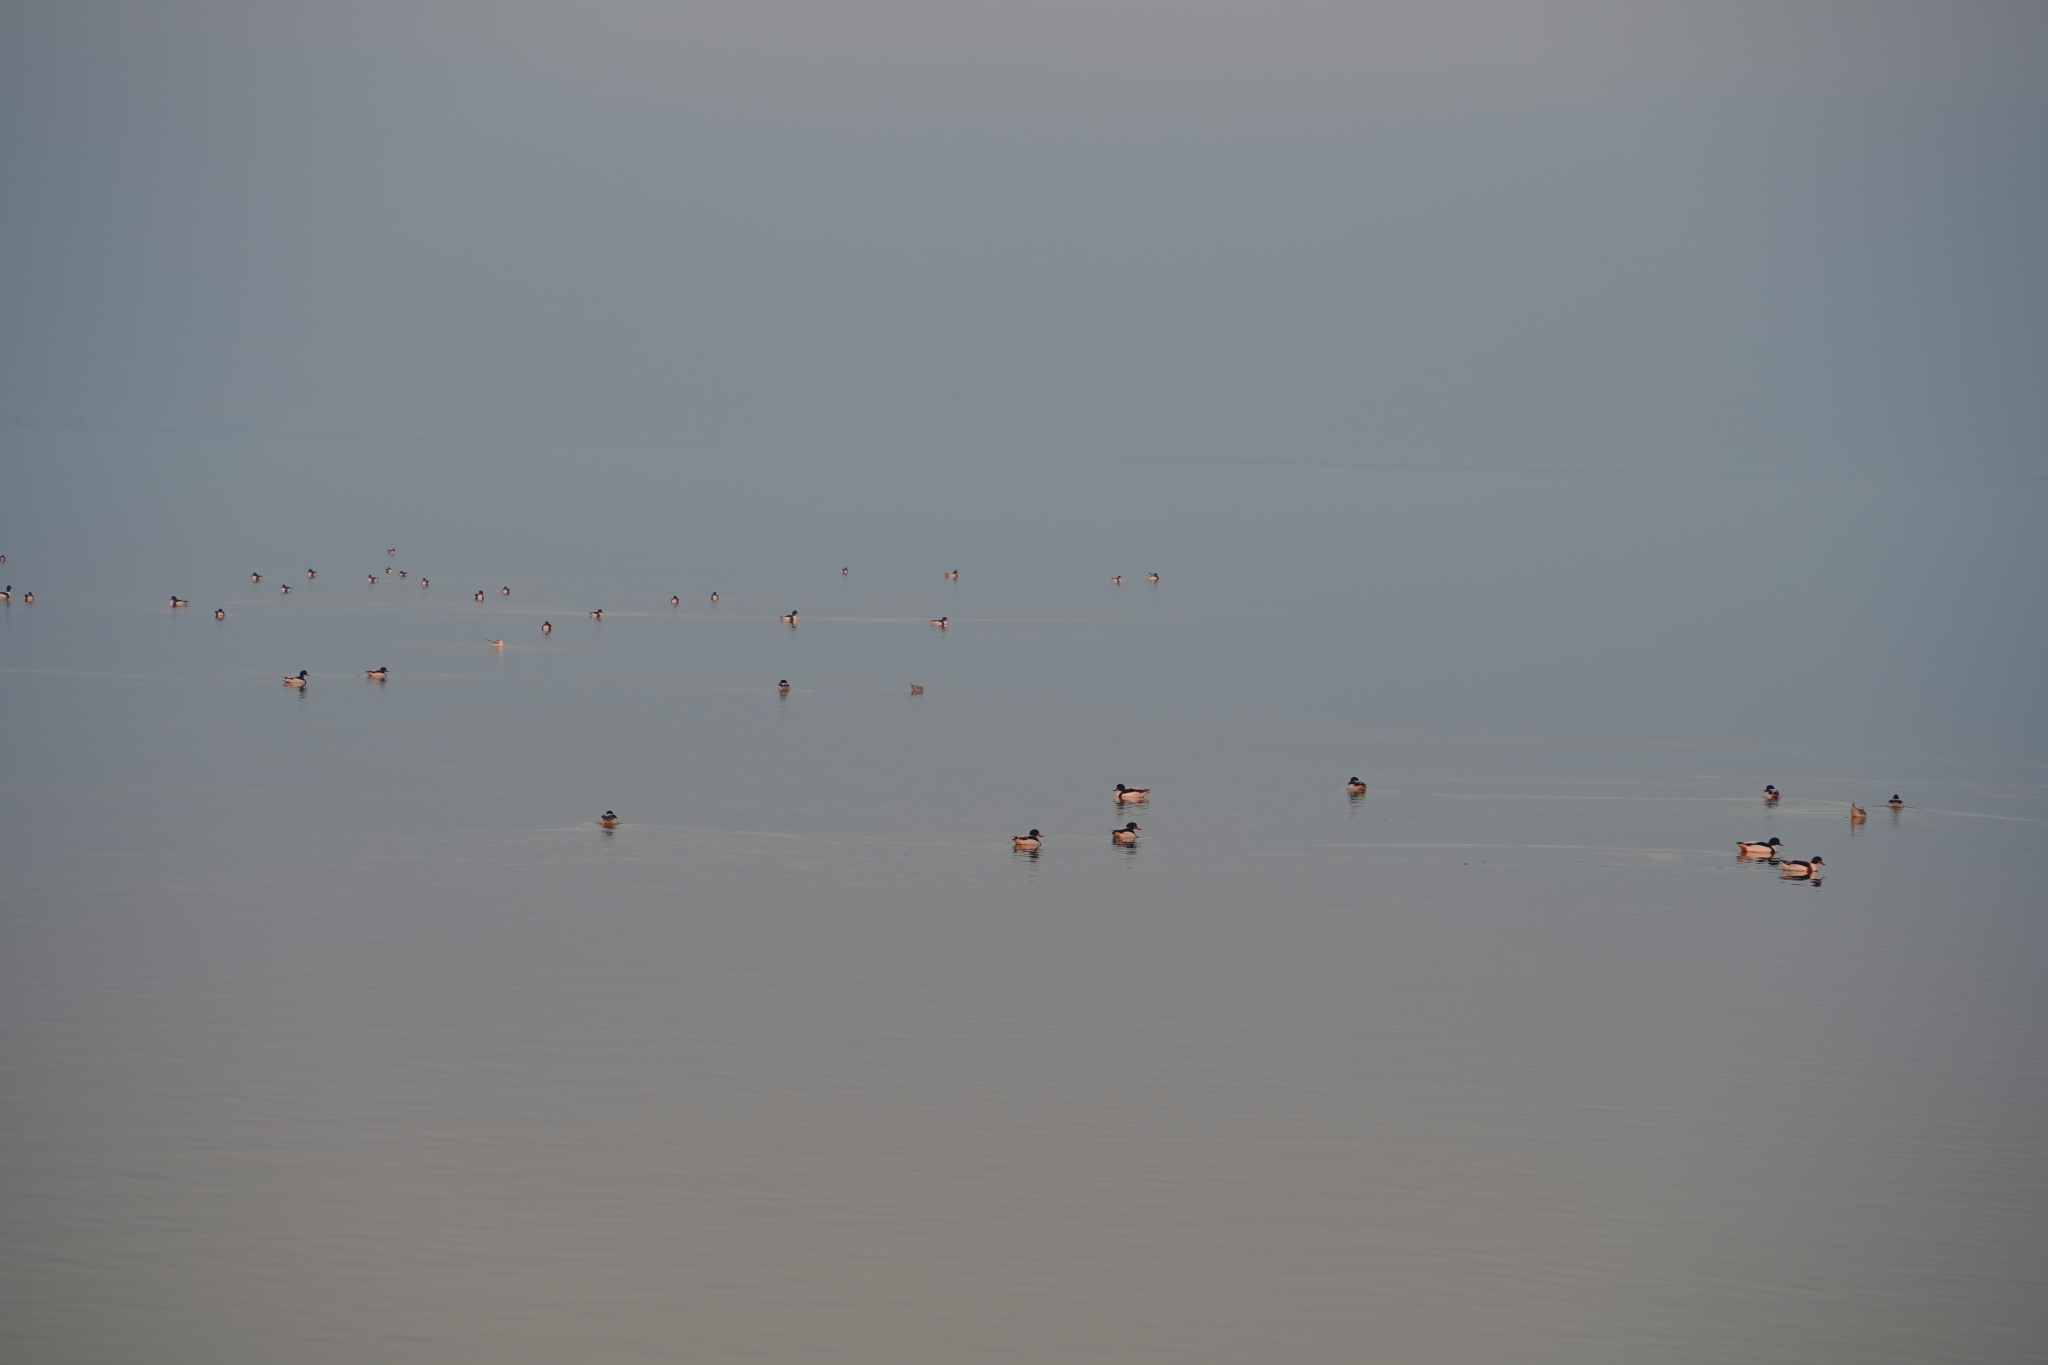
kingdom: Animalia
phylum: Chordata
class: Aves
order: Anseriformes
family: Anatidae
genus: Tadorna
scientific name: Tadorna tadorna
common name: Common shelduck
